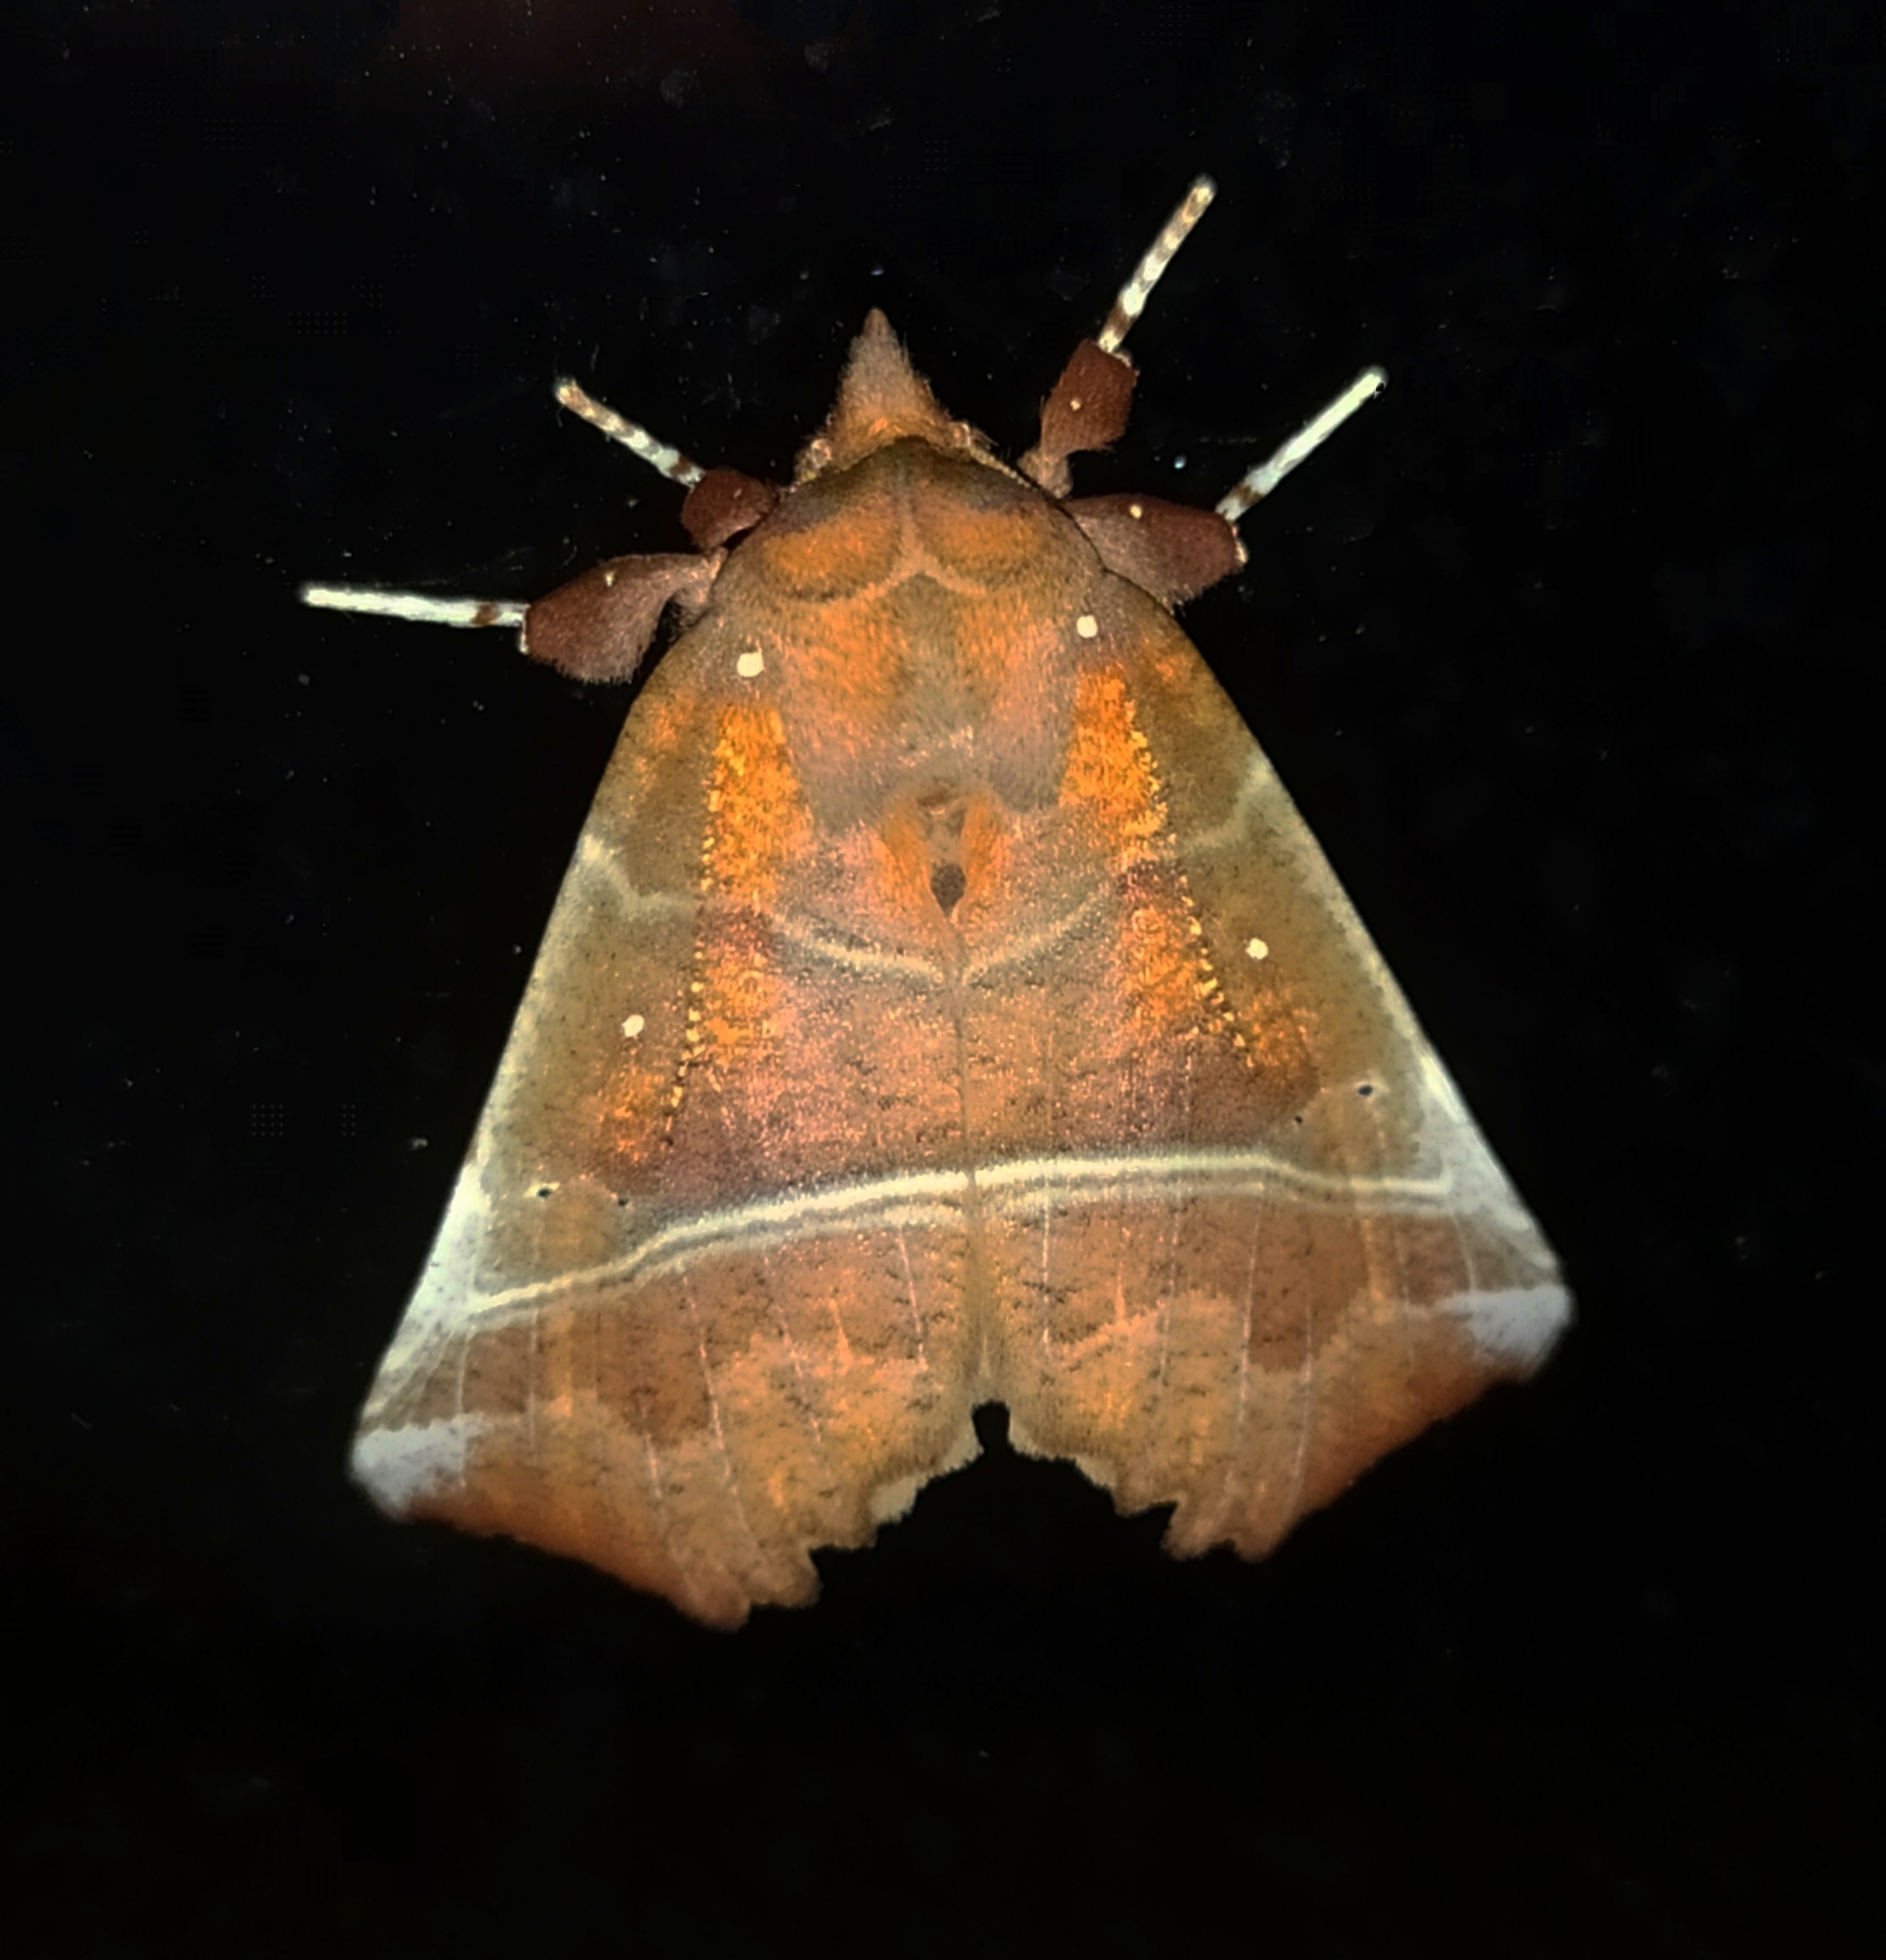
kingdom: Animalia
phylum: Arthropoda
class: Insecta
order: Lepidoptera
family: Erebidae
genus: Scoliopteryx
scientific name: Scoliopteryx libatrix
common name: Herald
